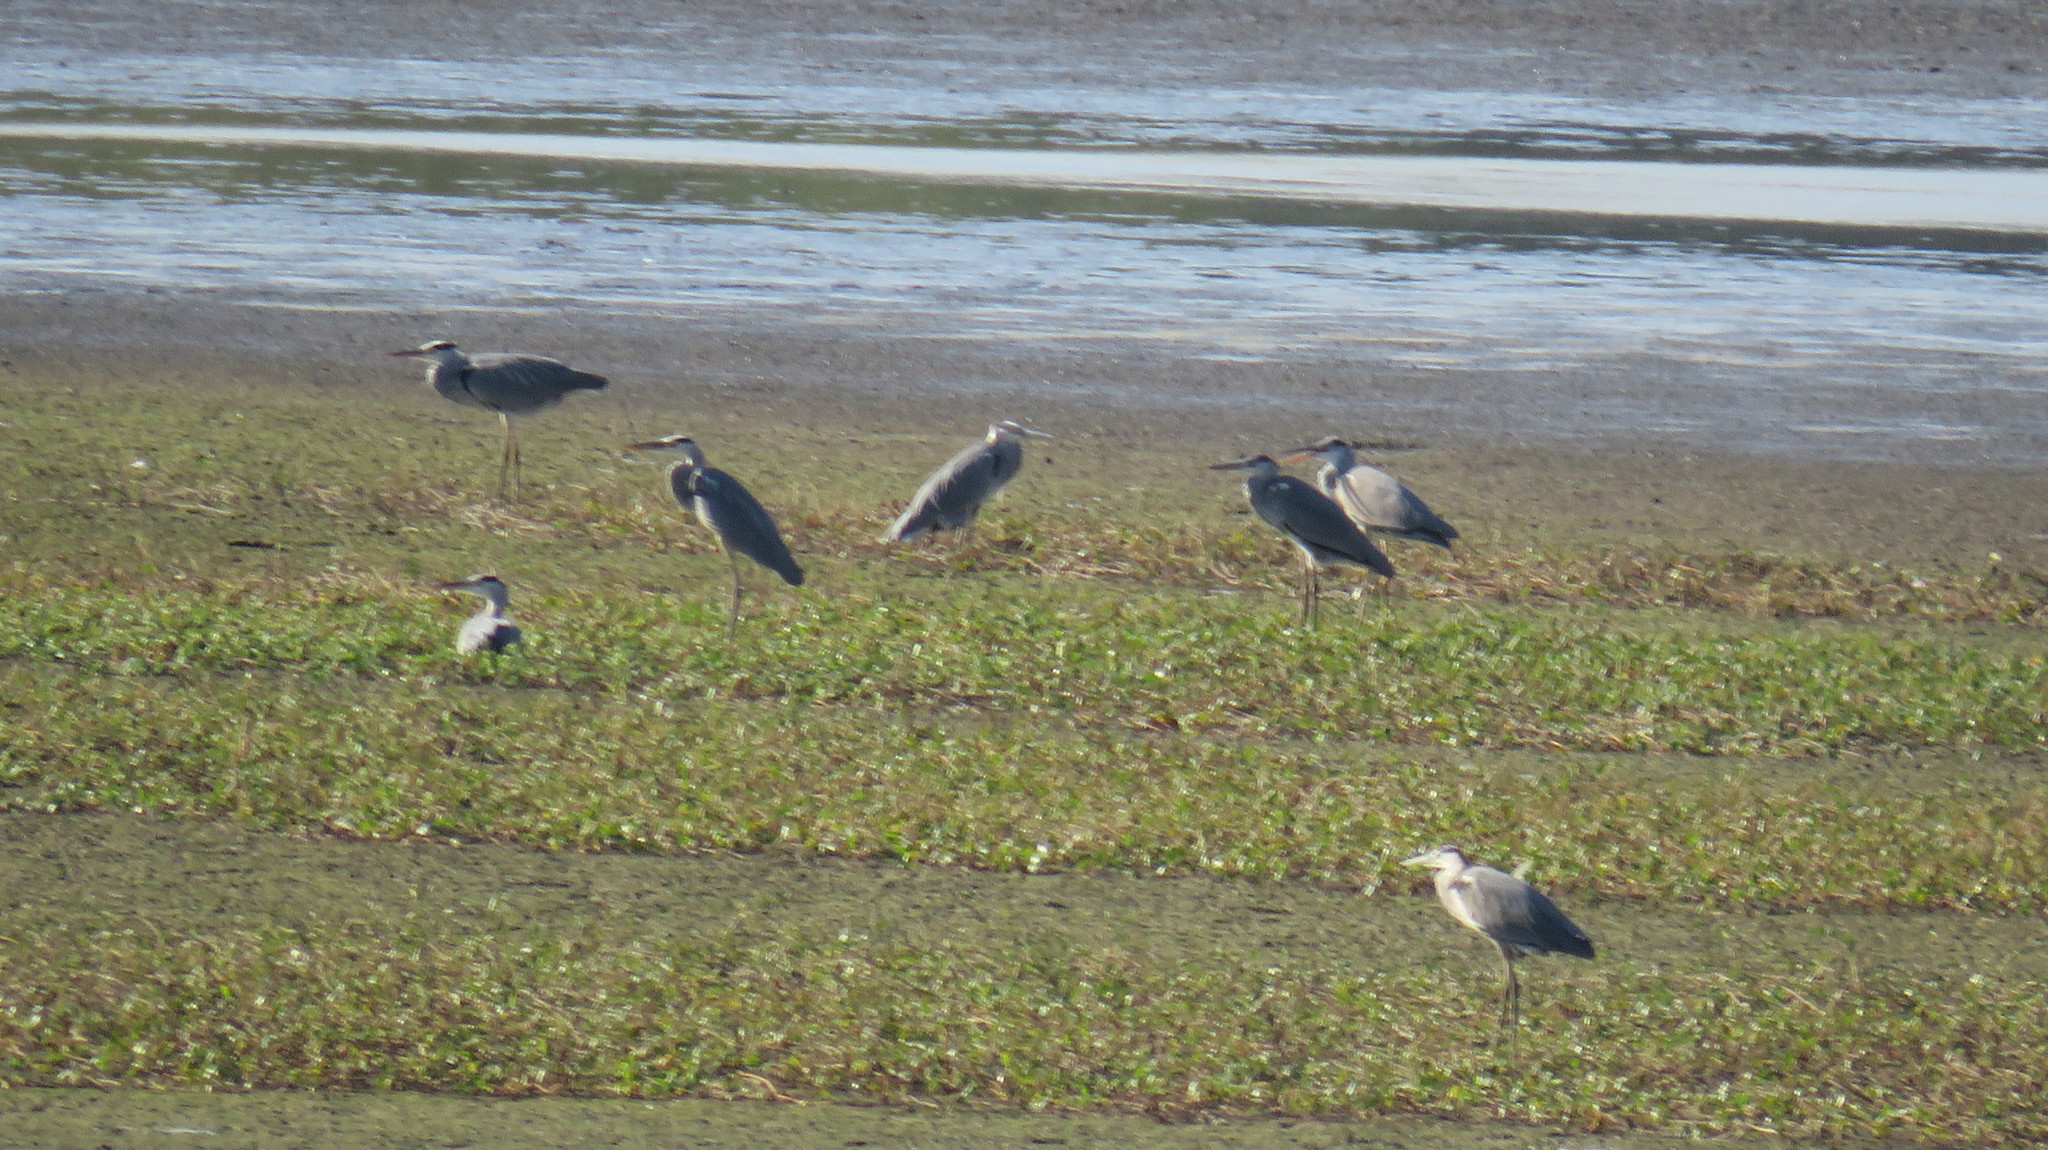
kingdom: Animalia
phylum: Chordata
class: Aves
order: Pelecaniformes
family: Ardeidae
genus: Ardea
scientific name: Ardea cinerea
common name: Grey heron
